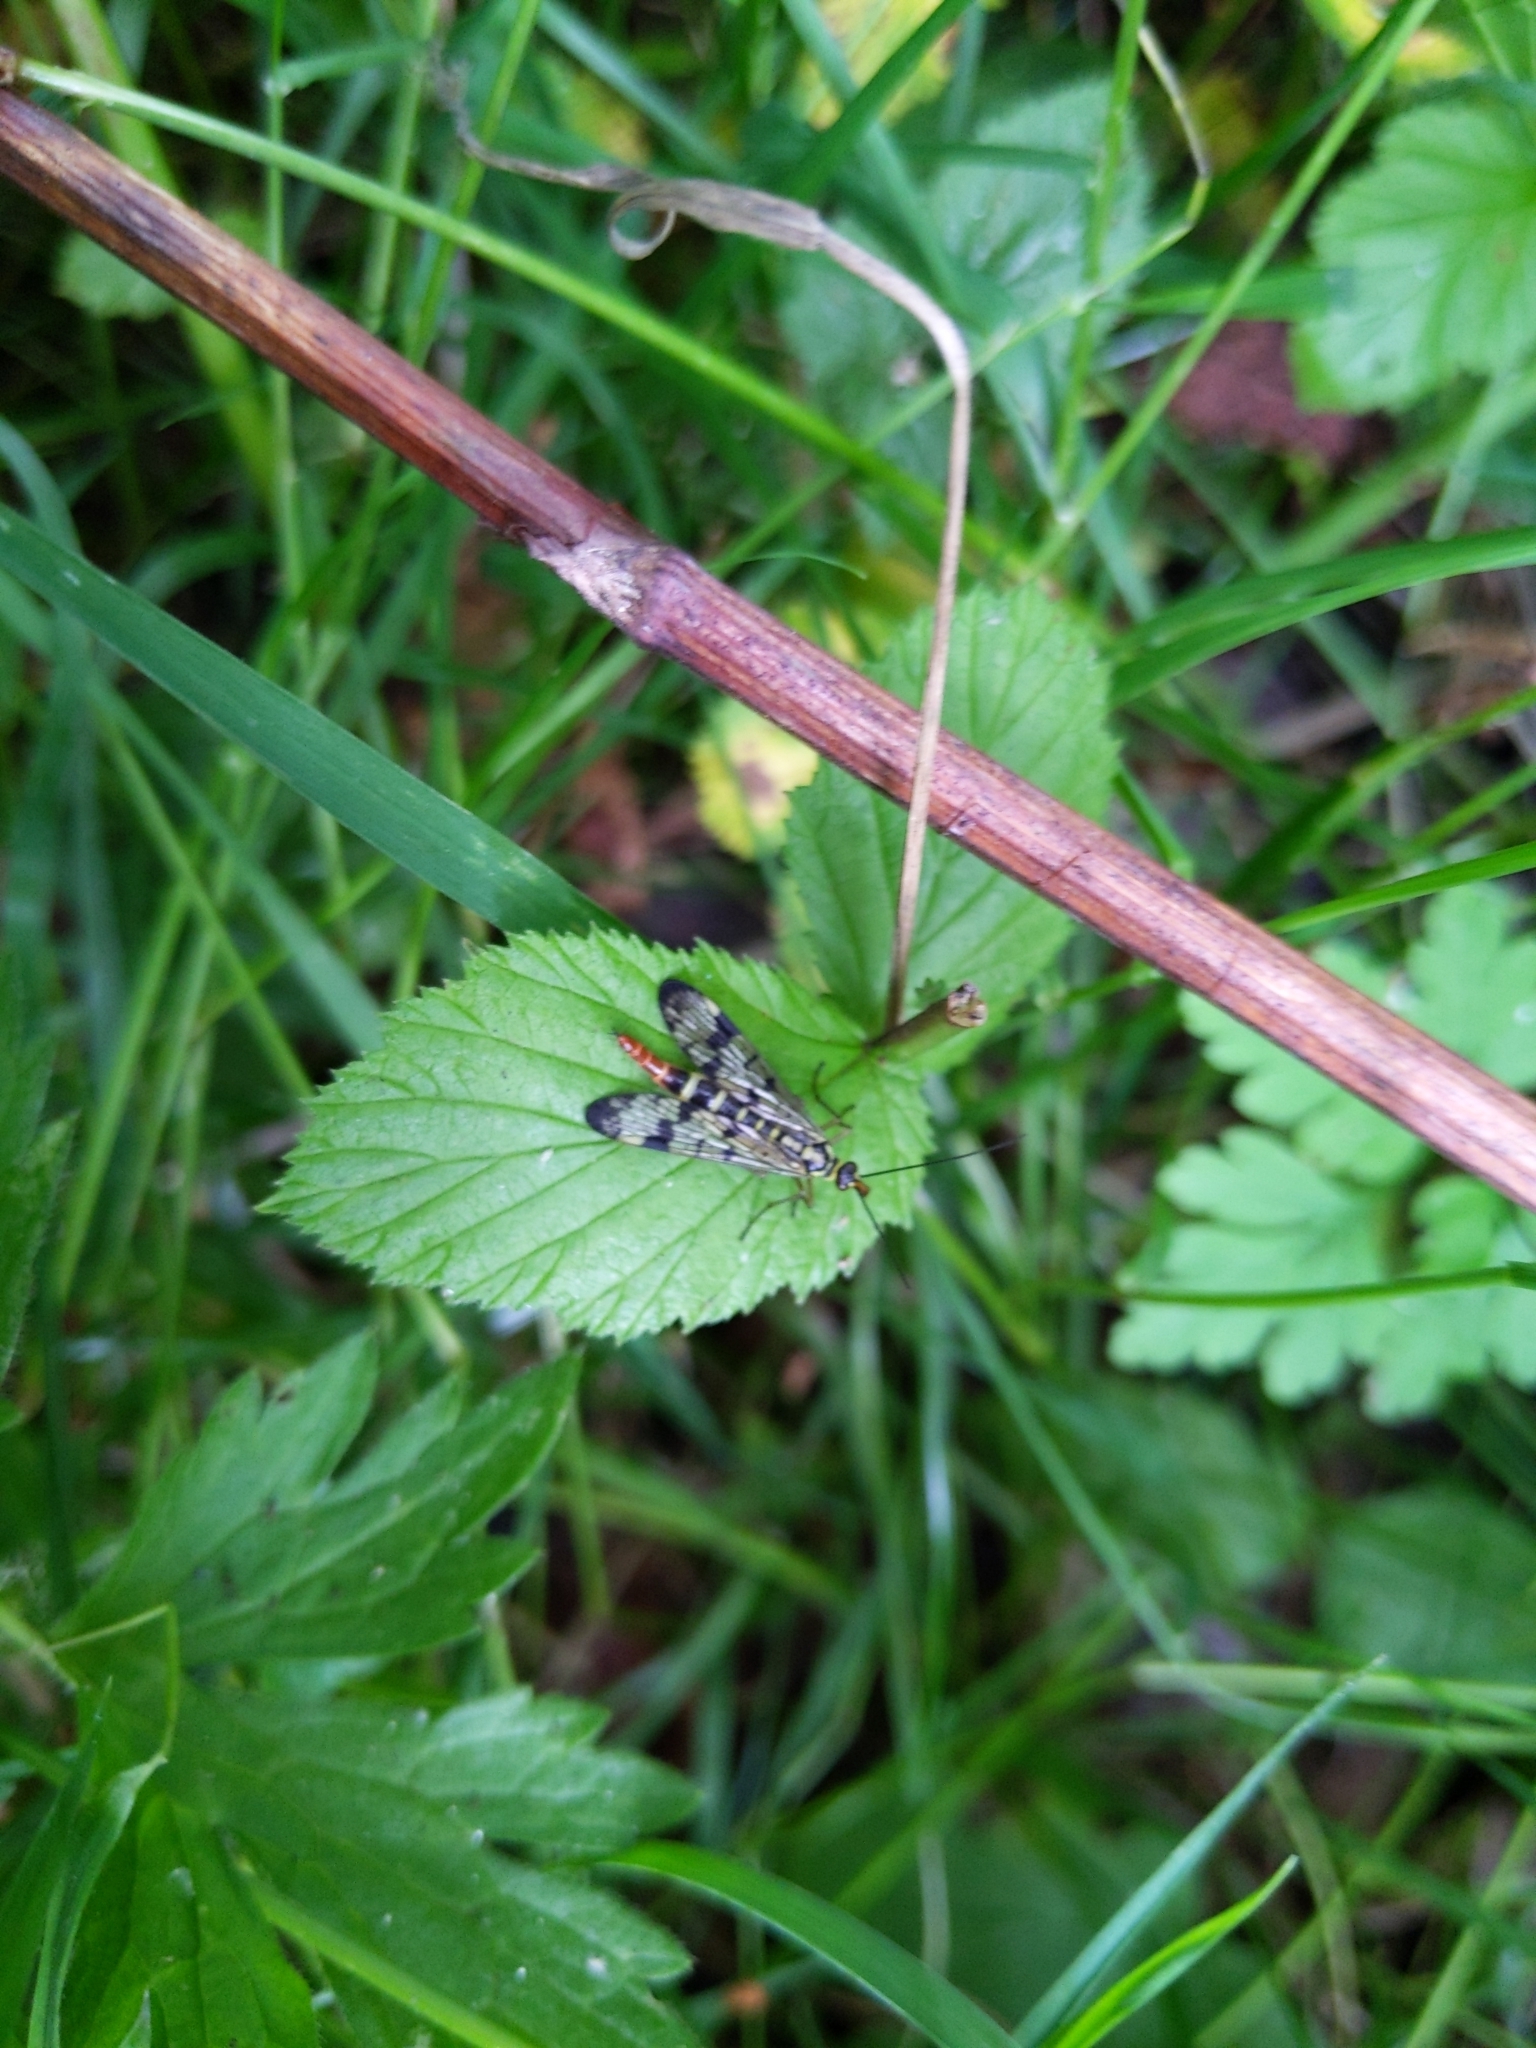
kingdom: Animalia
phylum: Arthropoda
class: Insecta
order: Mecoptera
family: Panorpidae
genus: Panorpa
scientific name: Panorpa communis
